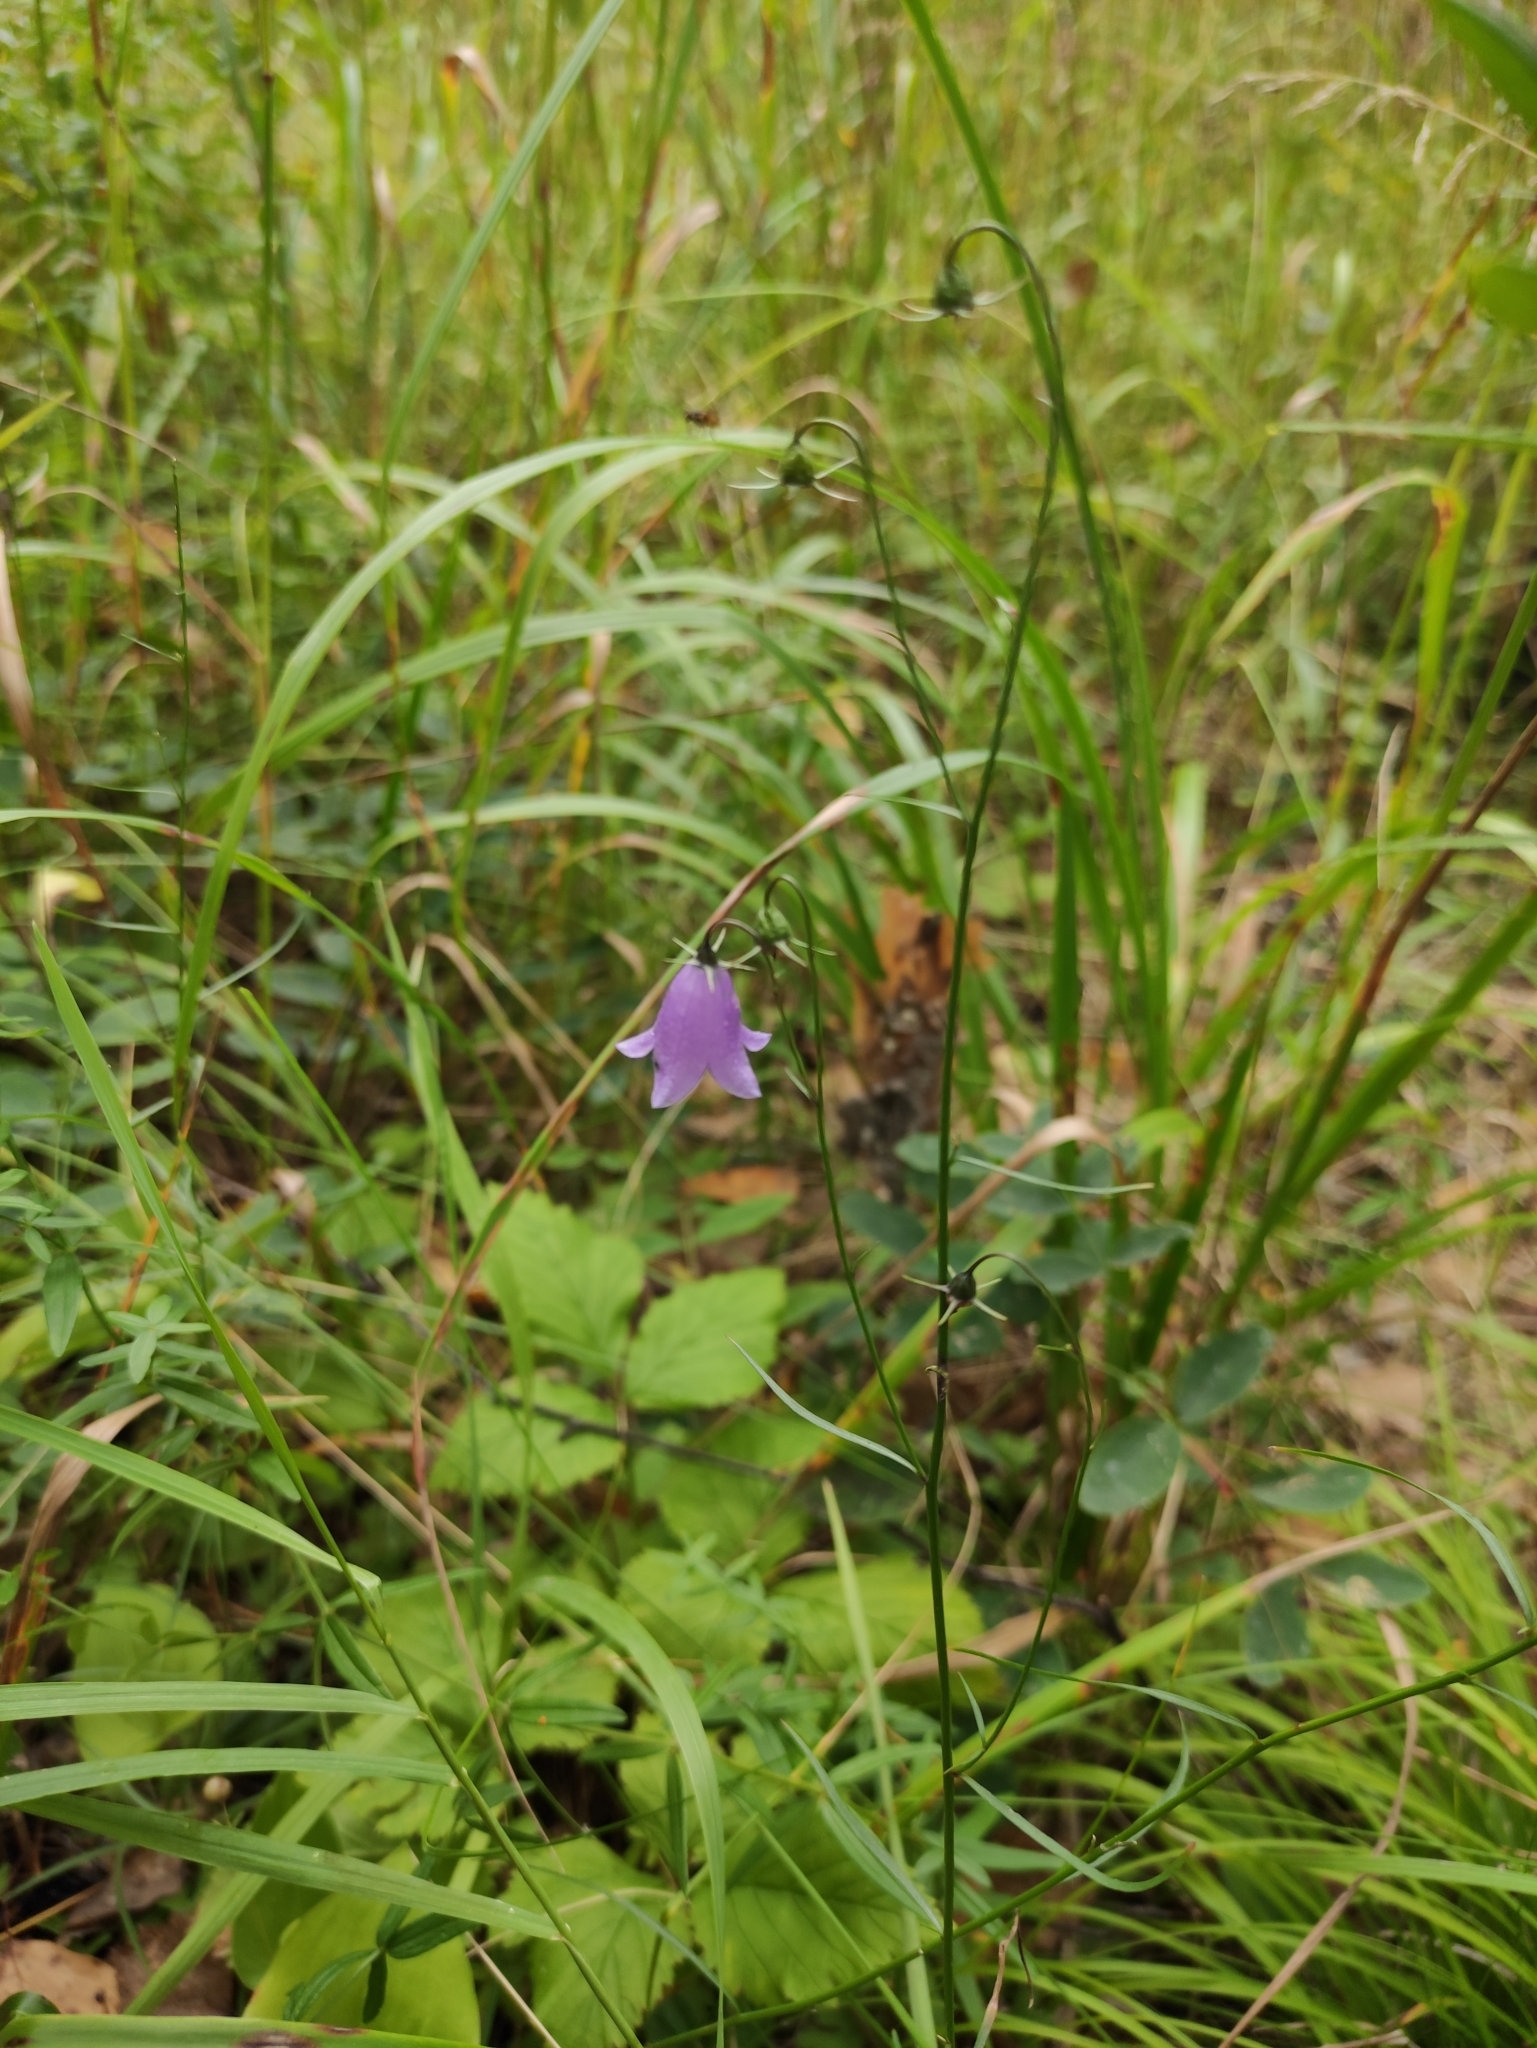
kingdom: Plantae
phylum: Tracheophyta
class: Magnoliopsida
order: Asterales
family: Campanulaceae
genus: Campanula
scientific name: Campanula rotundifolia
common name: Harebell
